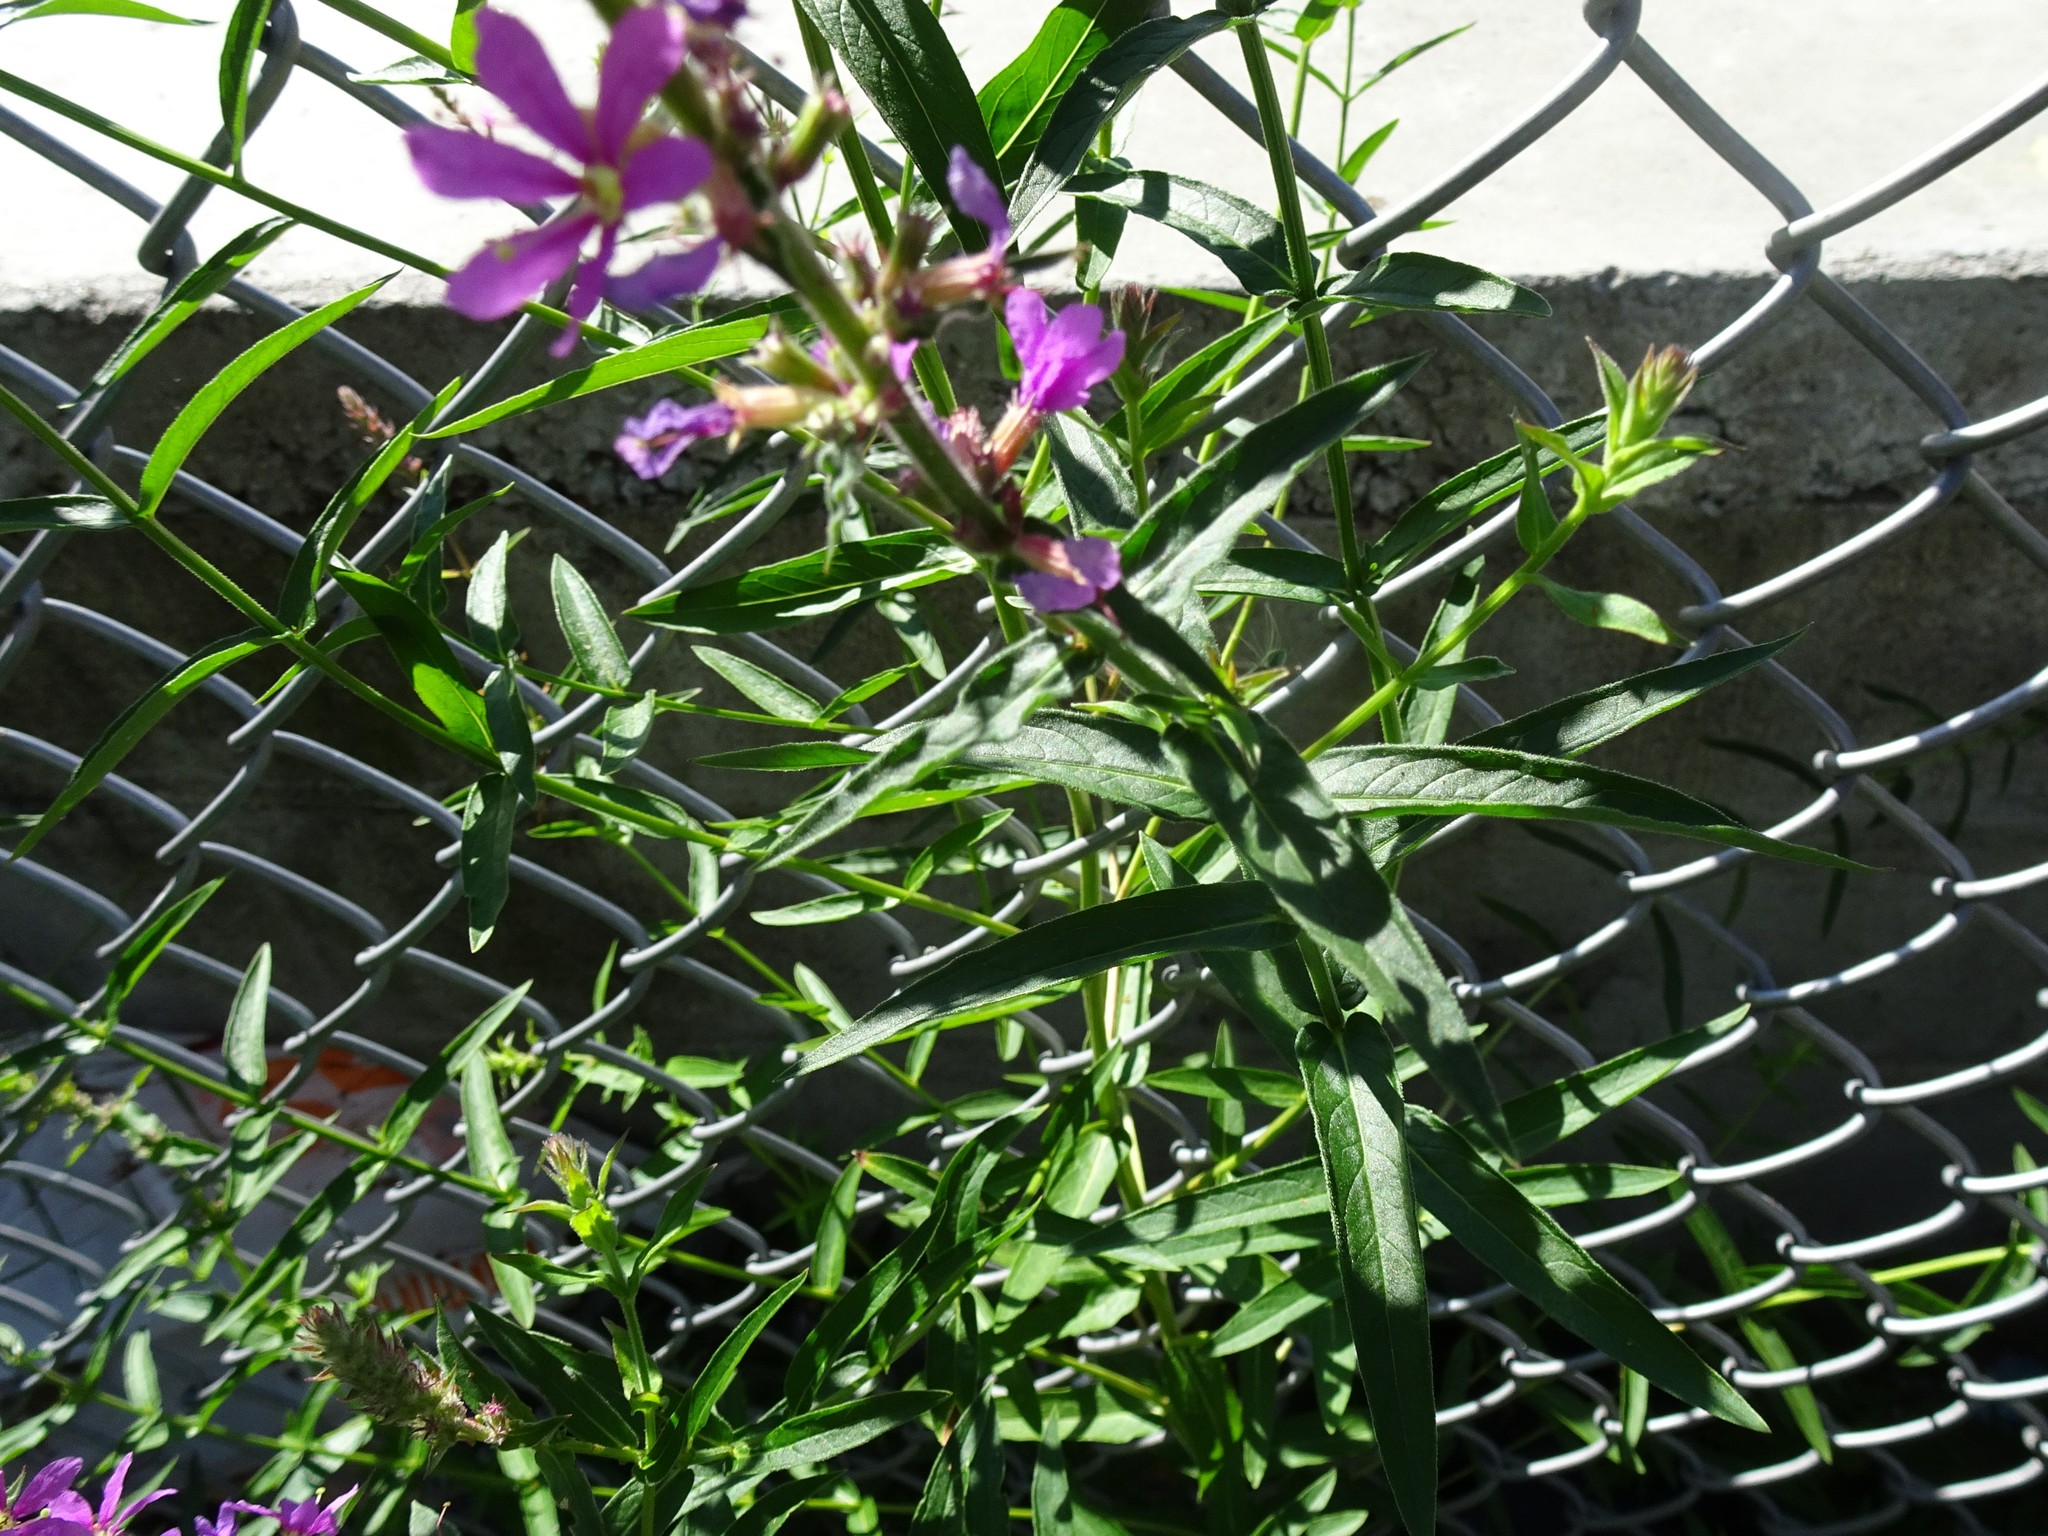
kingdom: Plantae
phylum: Tracheophyta
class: Magnoliopsida
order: Myrtales
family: Lythraceae
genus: Lythrum
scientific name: Lythrum salicaria
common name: Purple loosestrife
